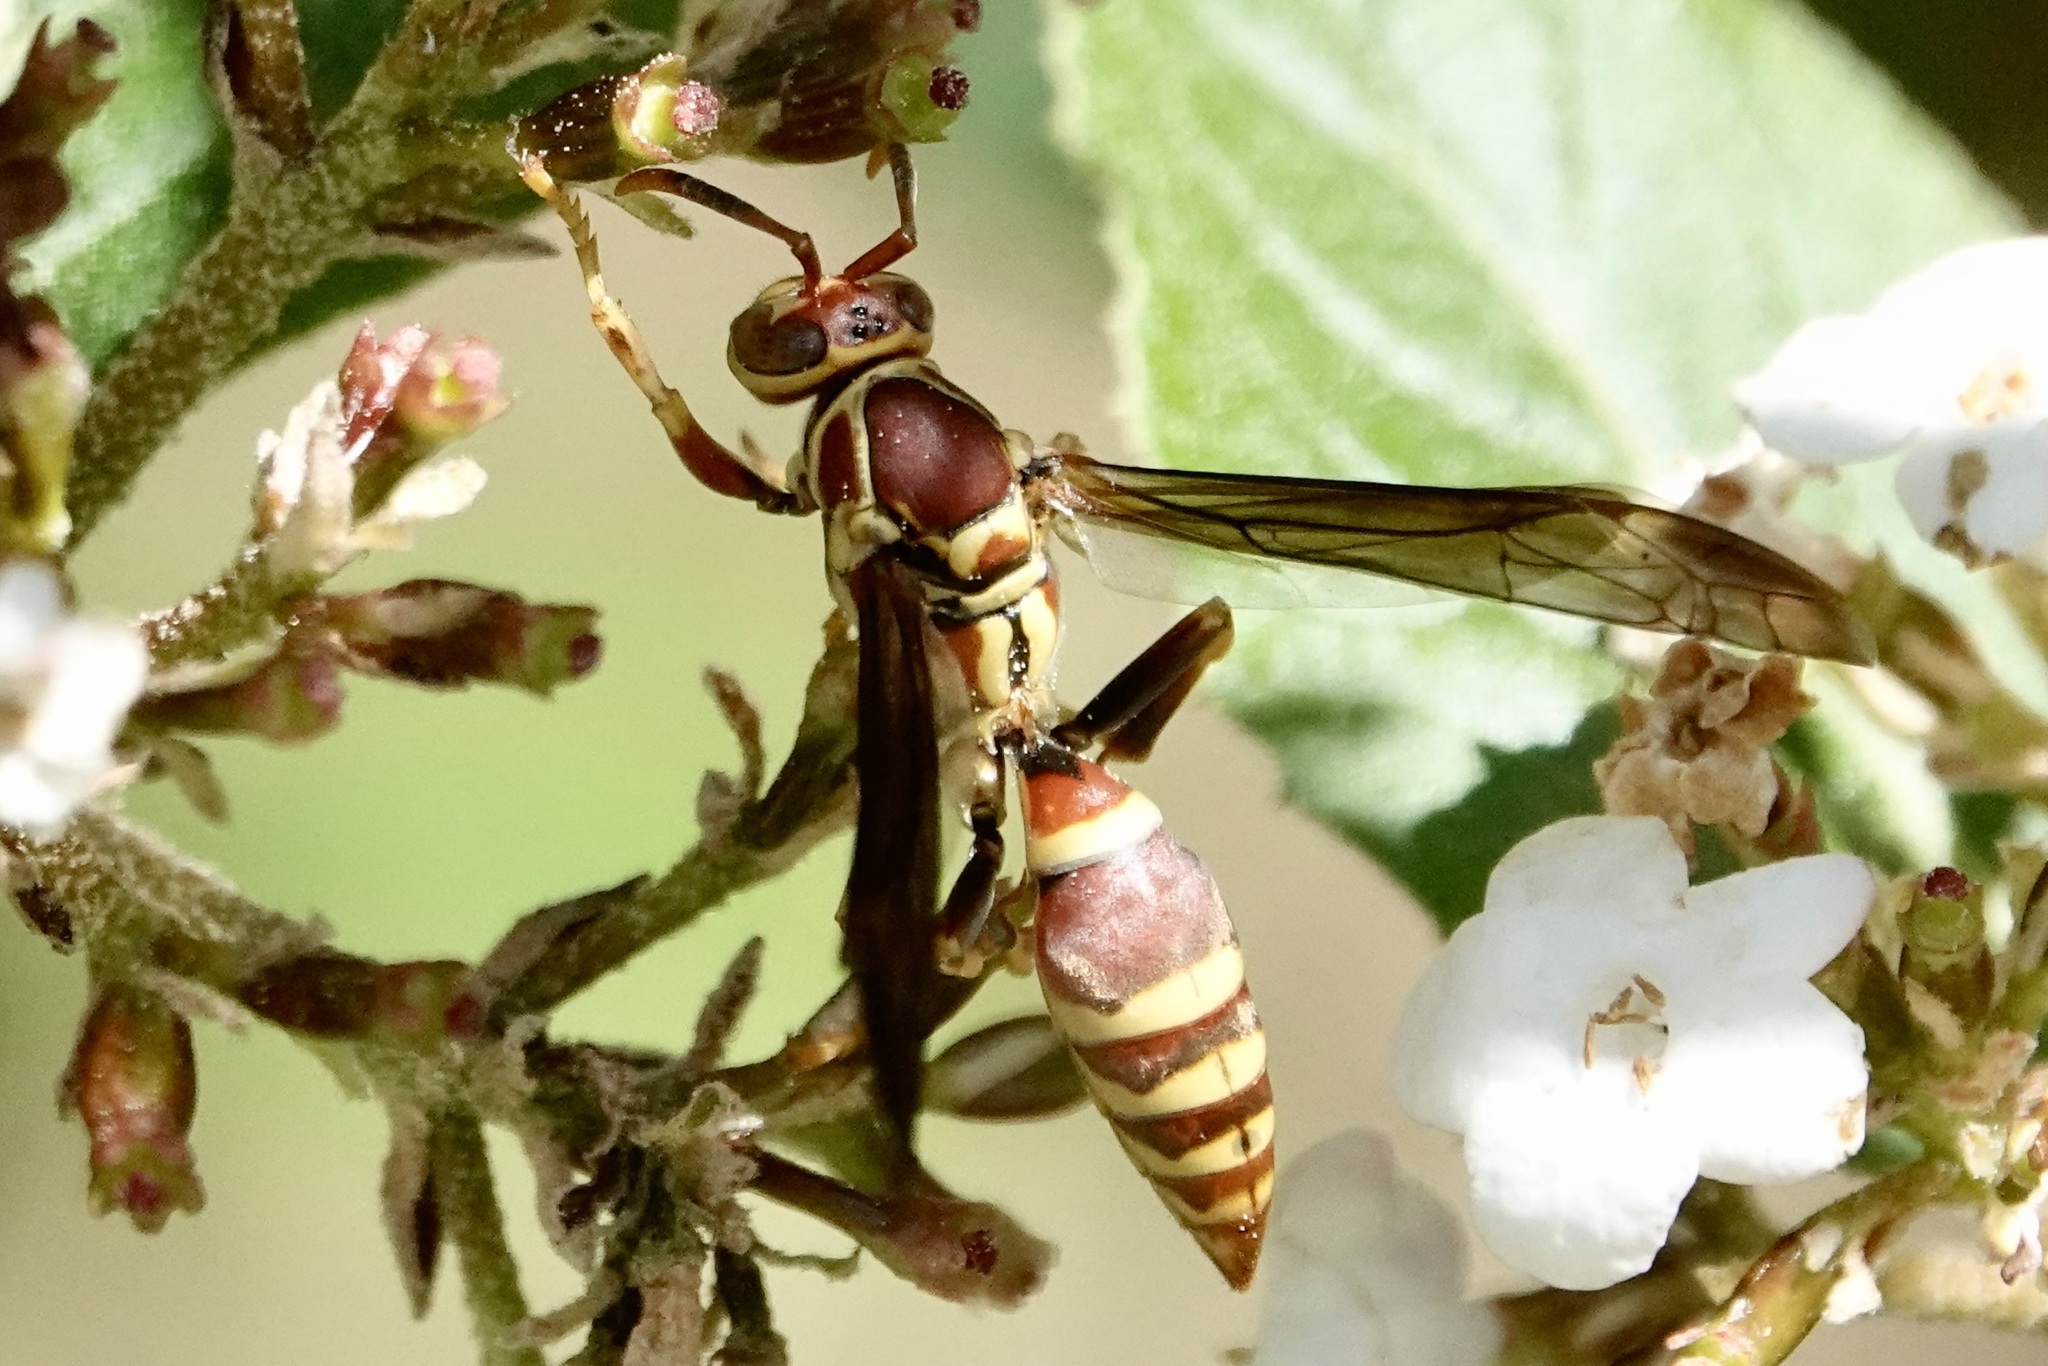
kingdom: Animalia
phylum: Arthropoda
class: Insecta
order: Hymenoptera
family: Eumenidae
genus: Polistes
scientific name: Polistes exclamans
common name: Paper wasp
